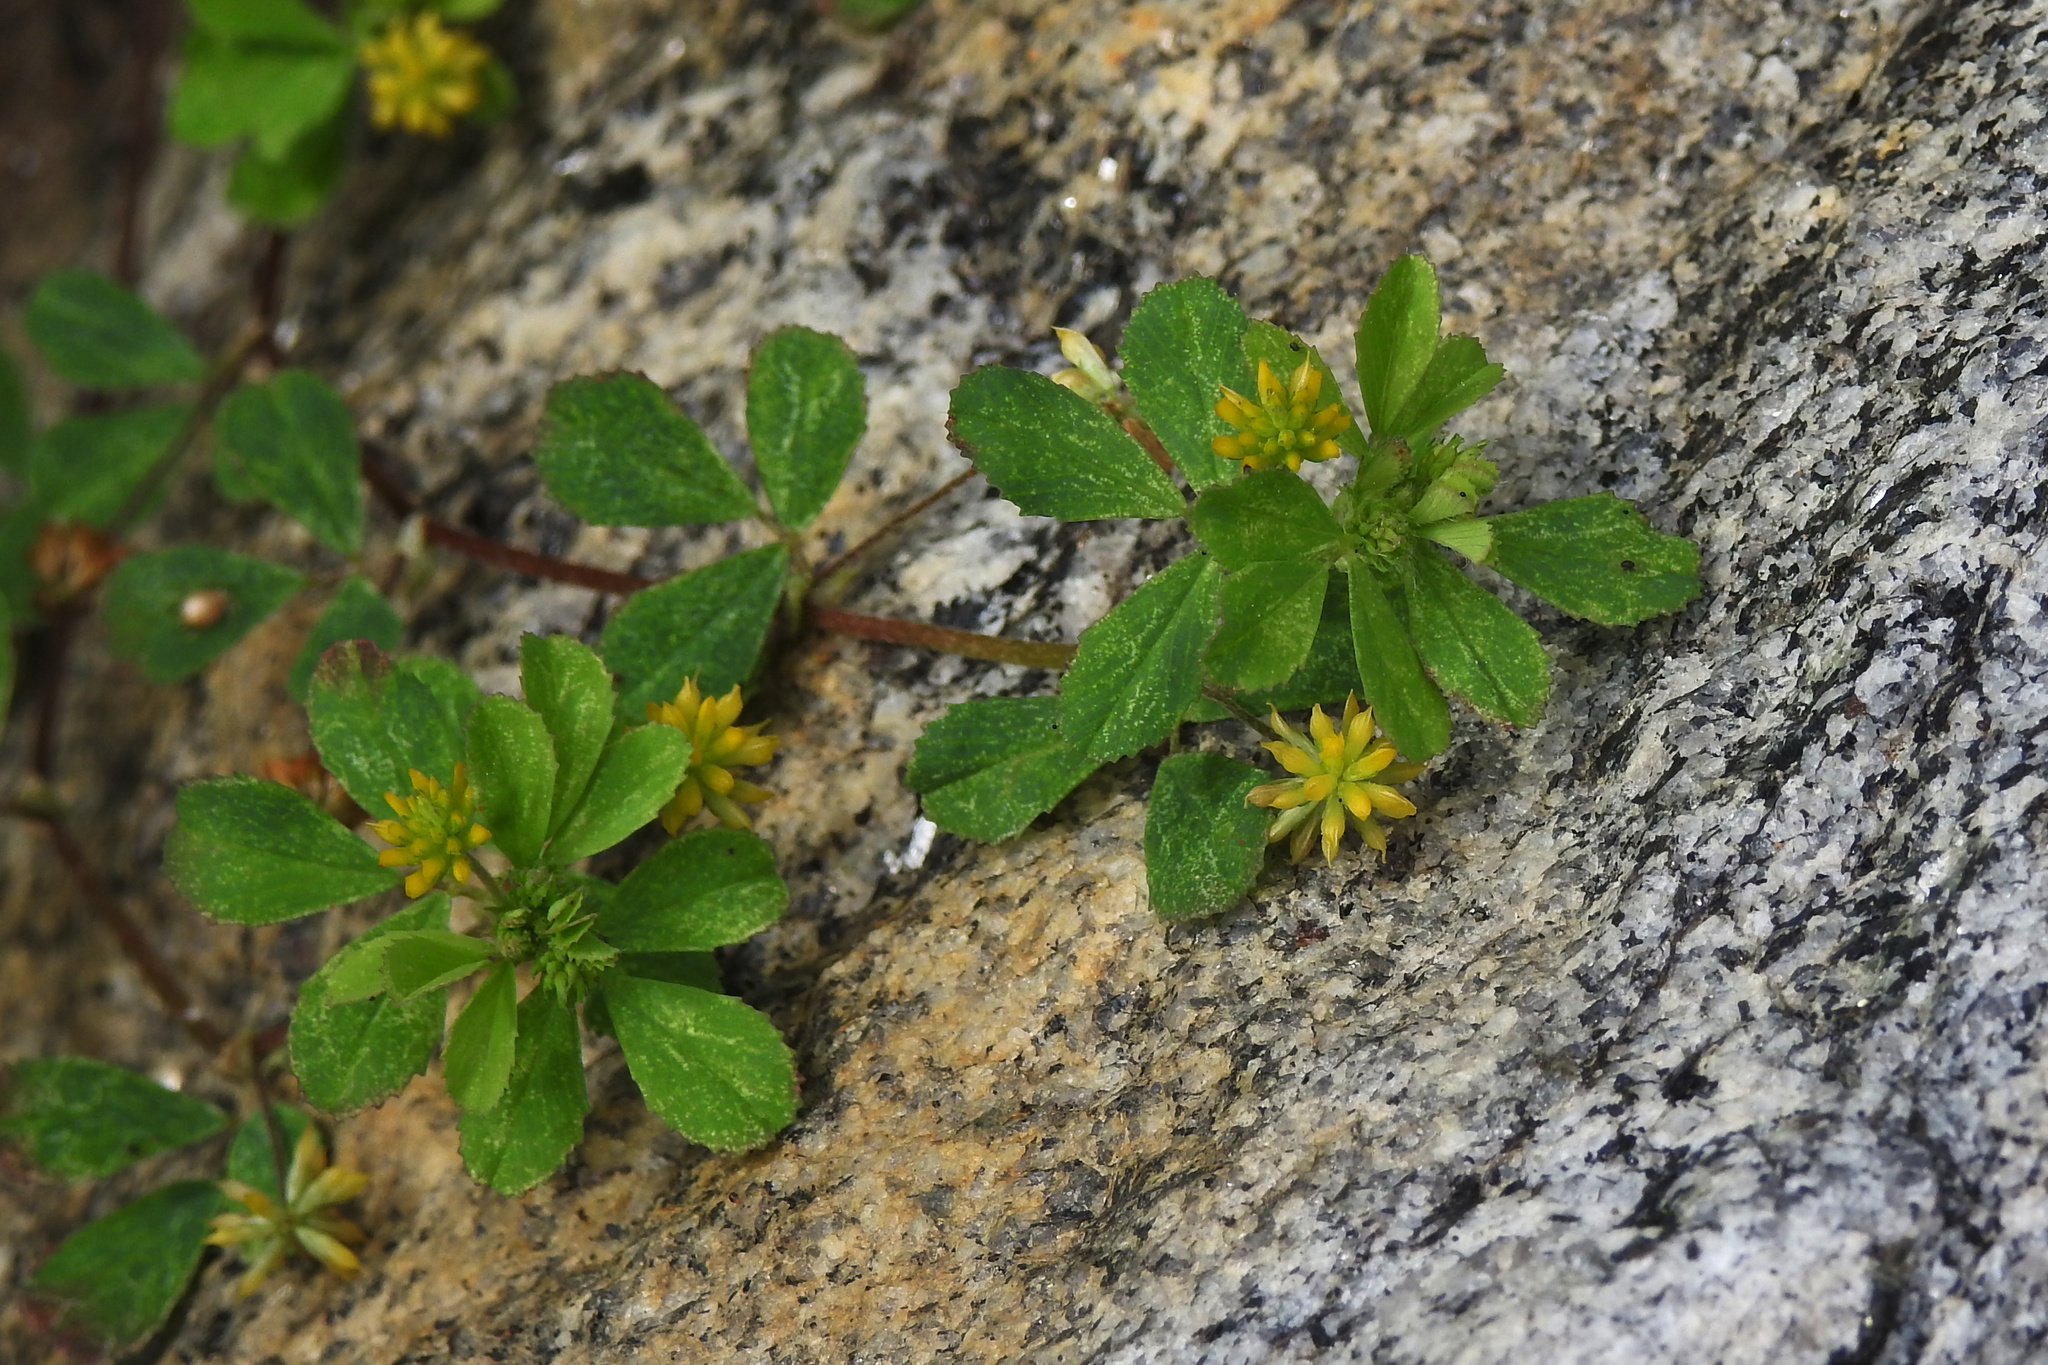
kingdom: Plantae
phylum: Tracheophyta
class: Magnoliopsida
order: Fabales
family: Fabaceae
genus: Trifolium
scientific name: Trifolium dubium
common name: Suckling clover
